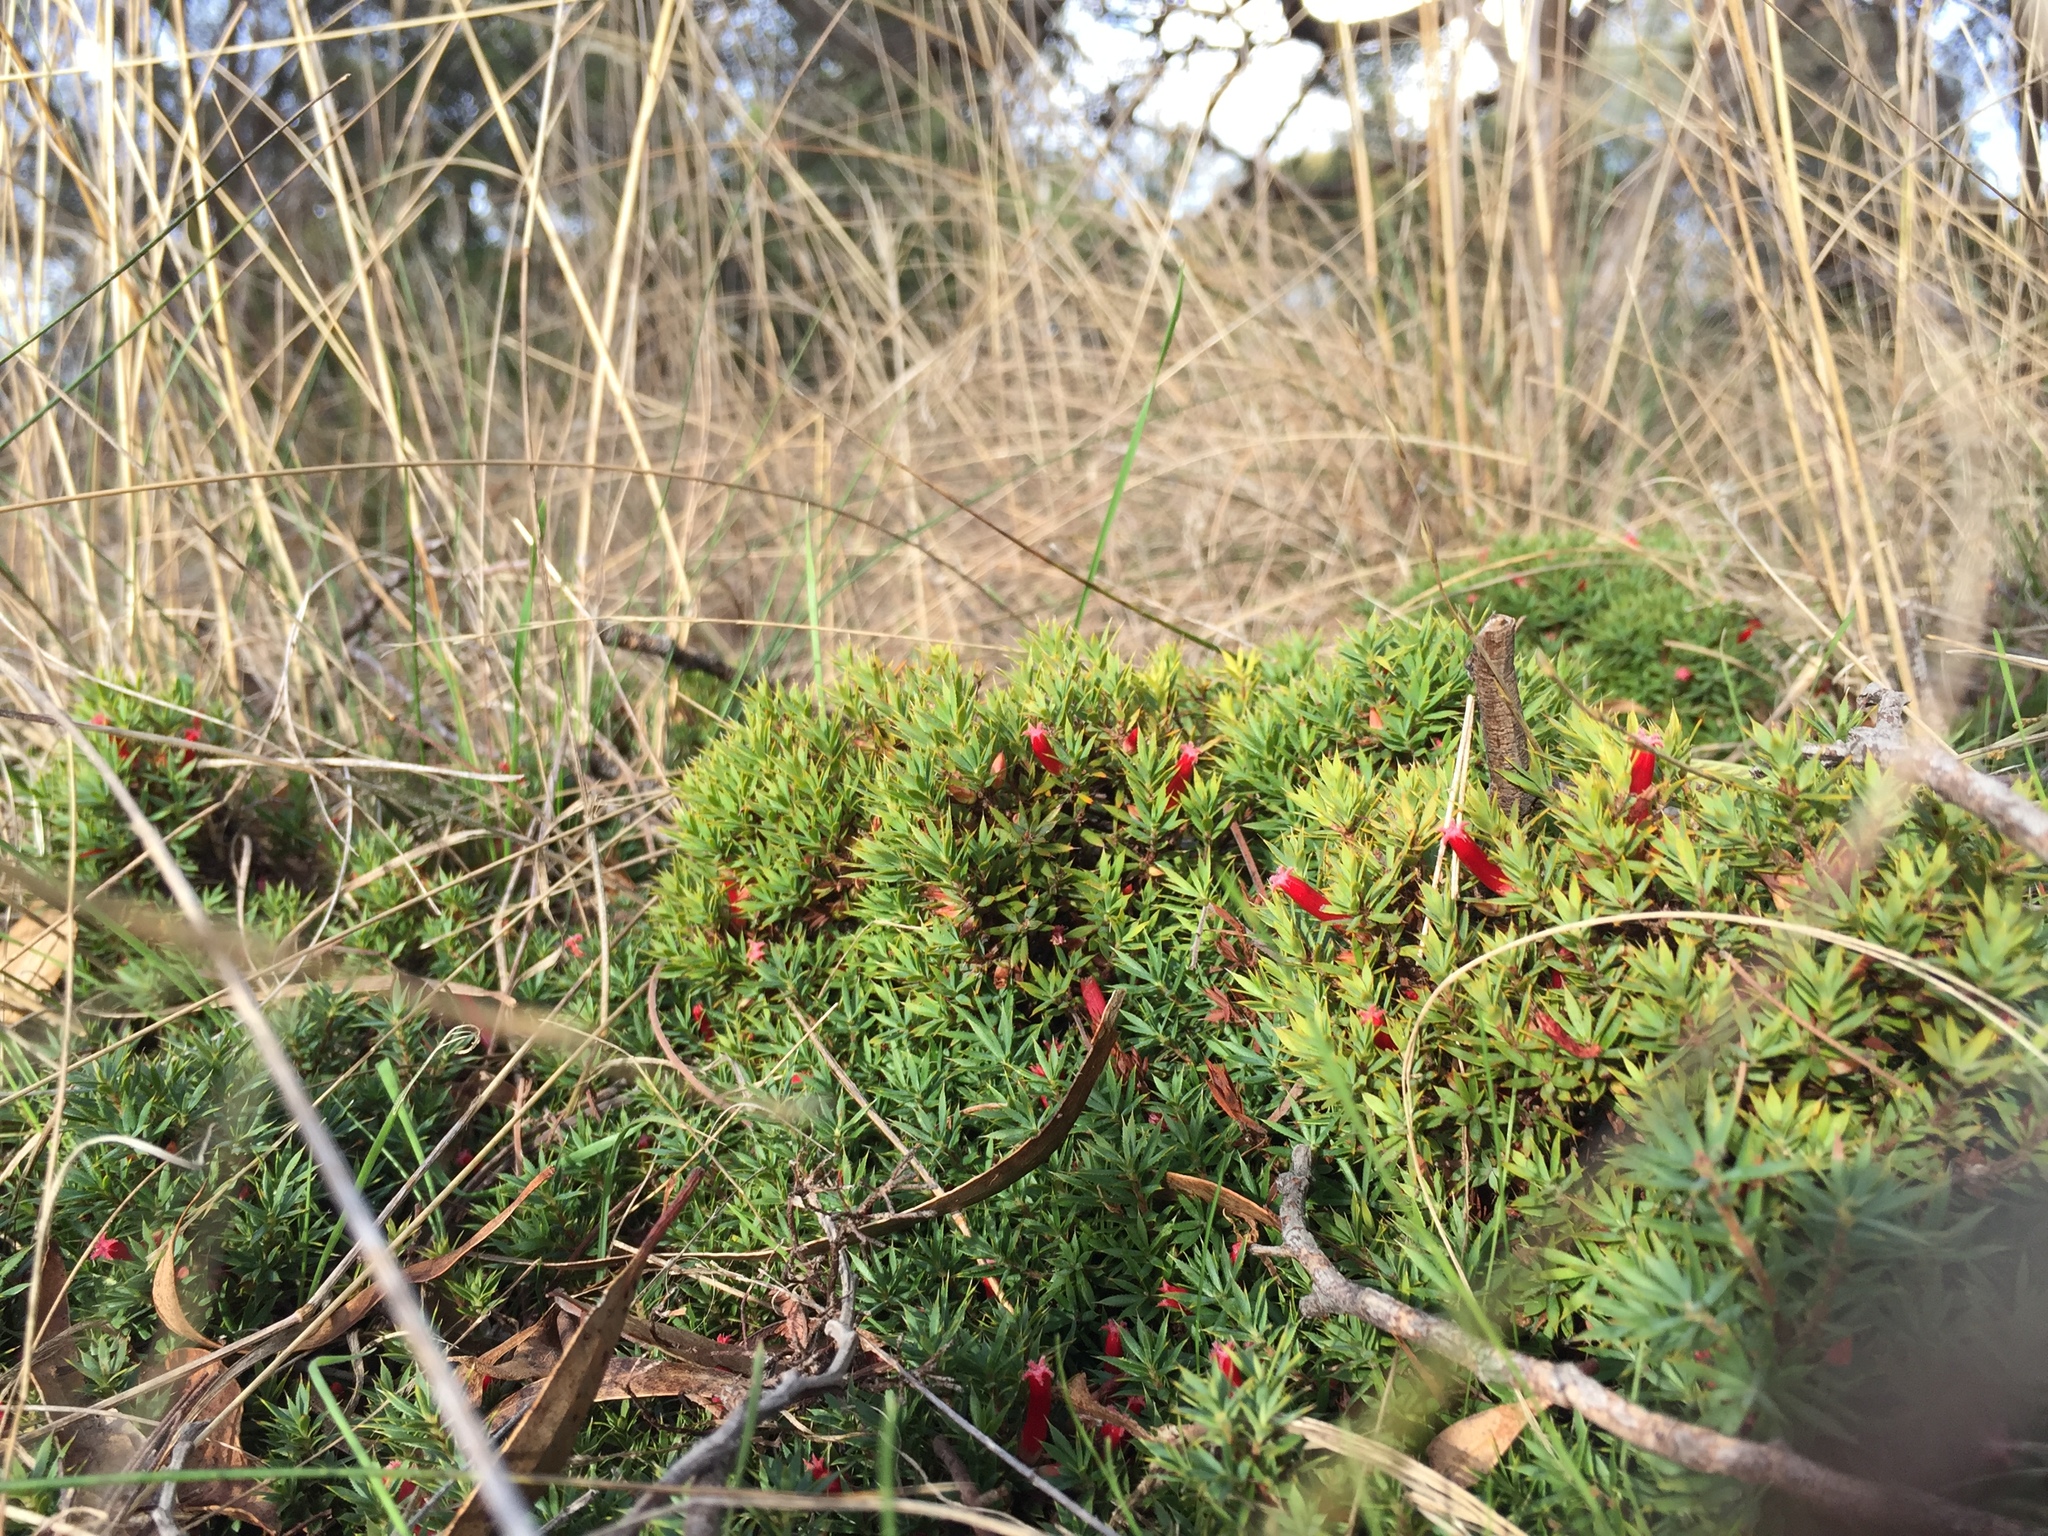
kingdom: Plantae
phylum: Tracheophyta
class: Magnoliopsida
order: Ericales
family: Ericaceae
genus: Styphelia
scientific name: Styphelia humifusa
